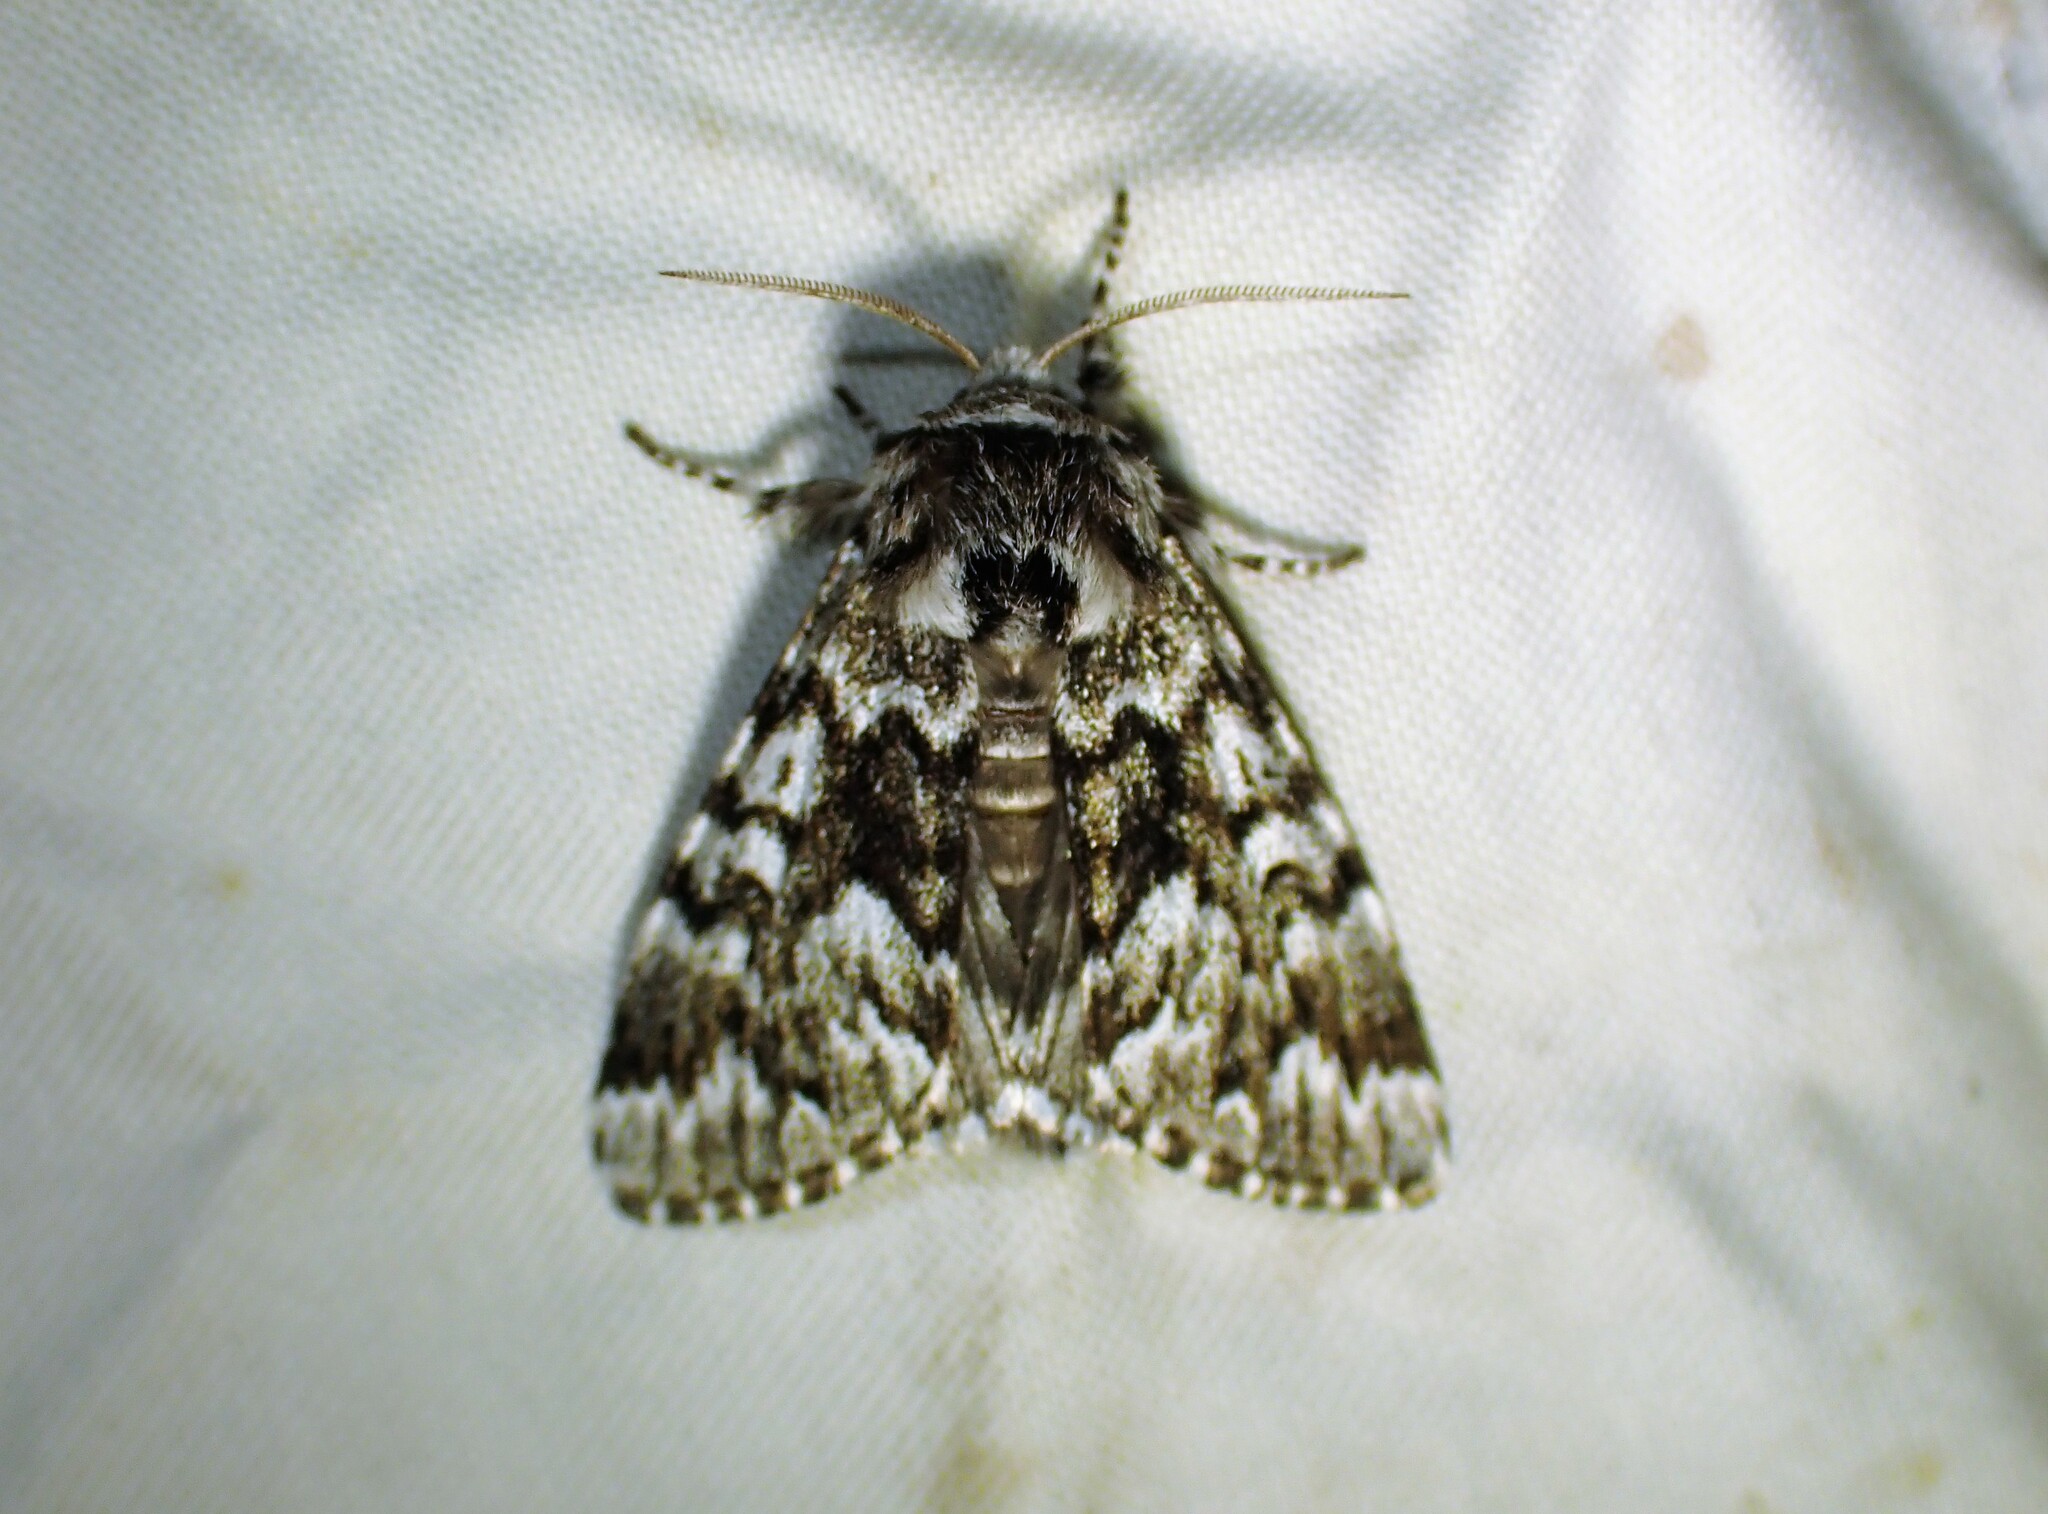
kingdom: Animalia
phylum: Arthropoda
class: Insecta
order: Lepidoptera
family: Noctuidae
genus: Panthea
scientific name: Panthea acronyctoides
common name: Black zigzag moth
